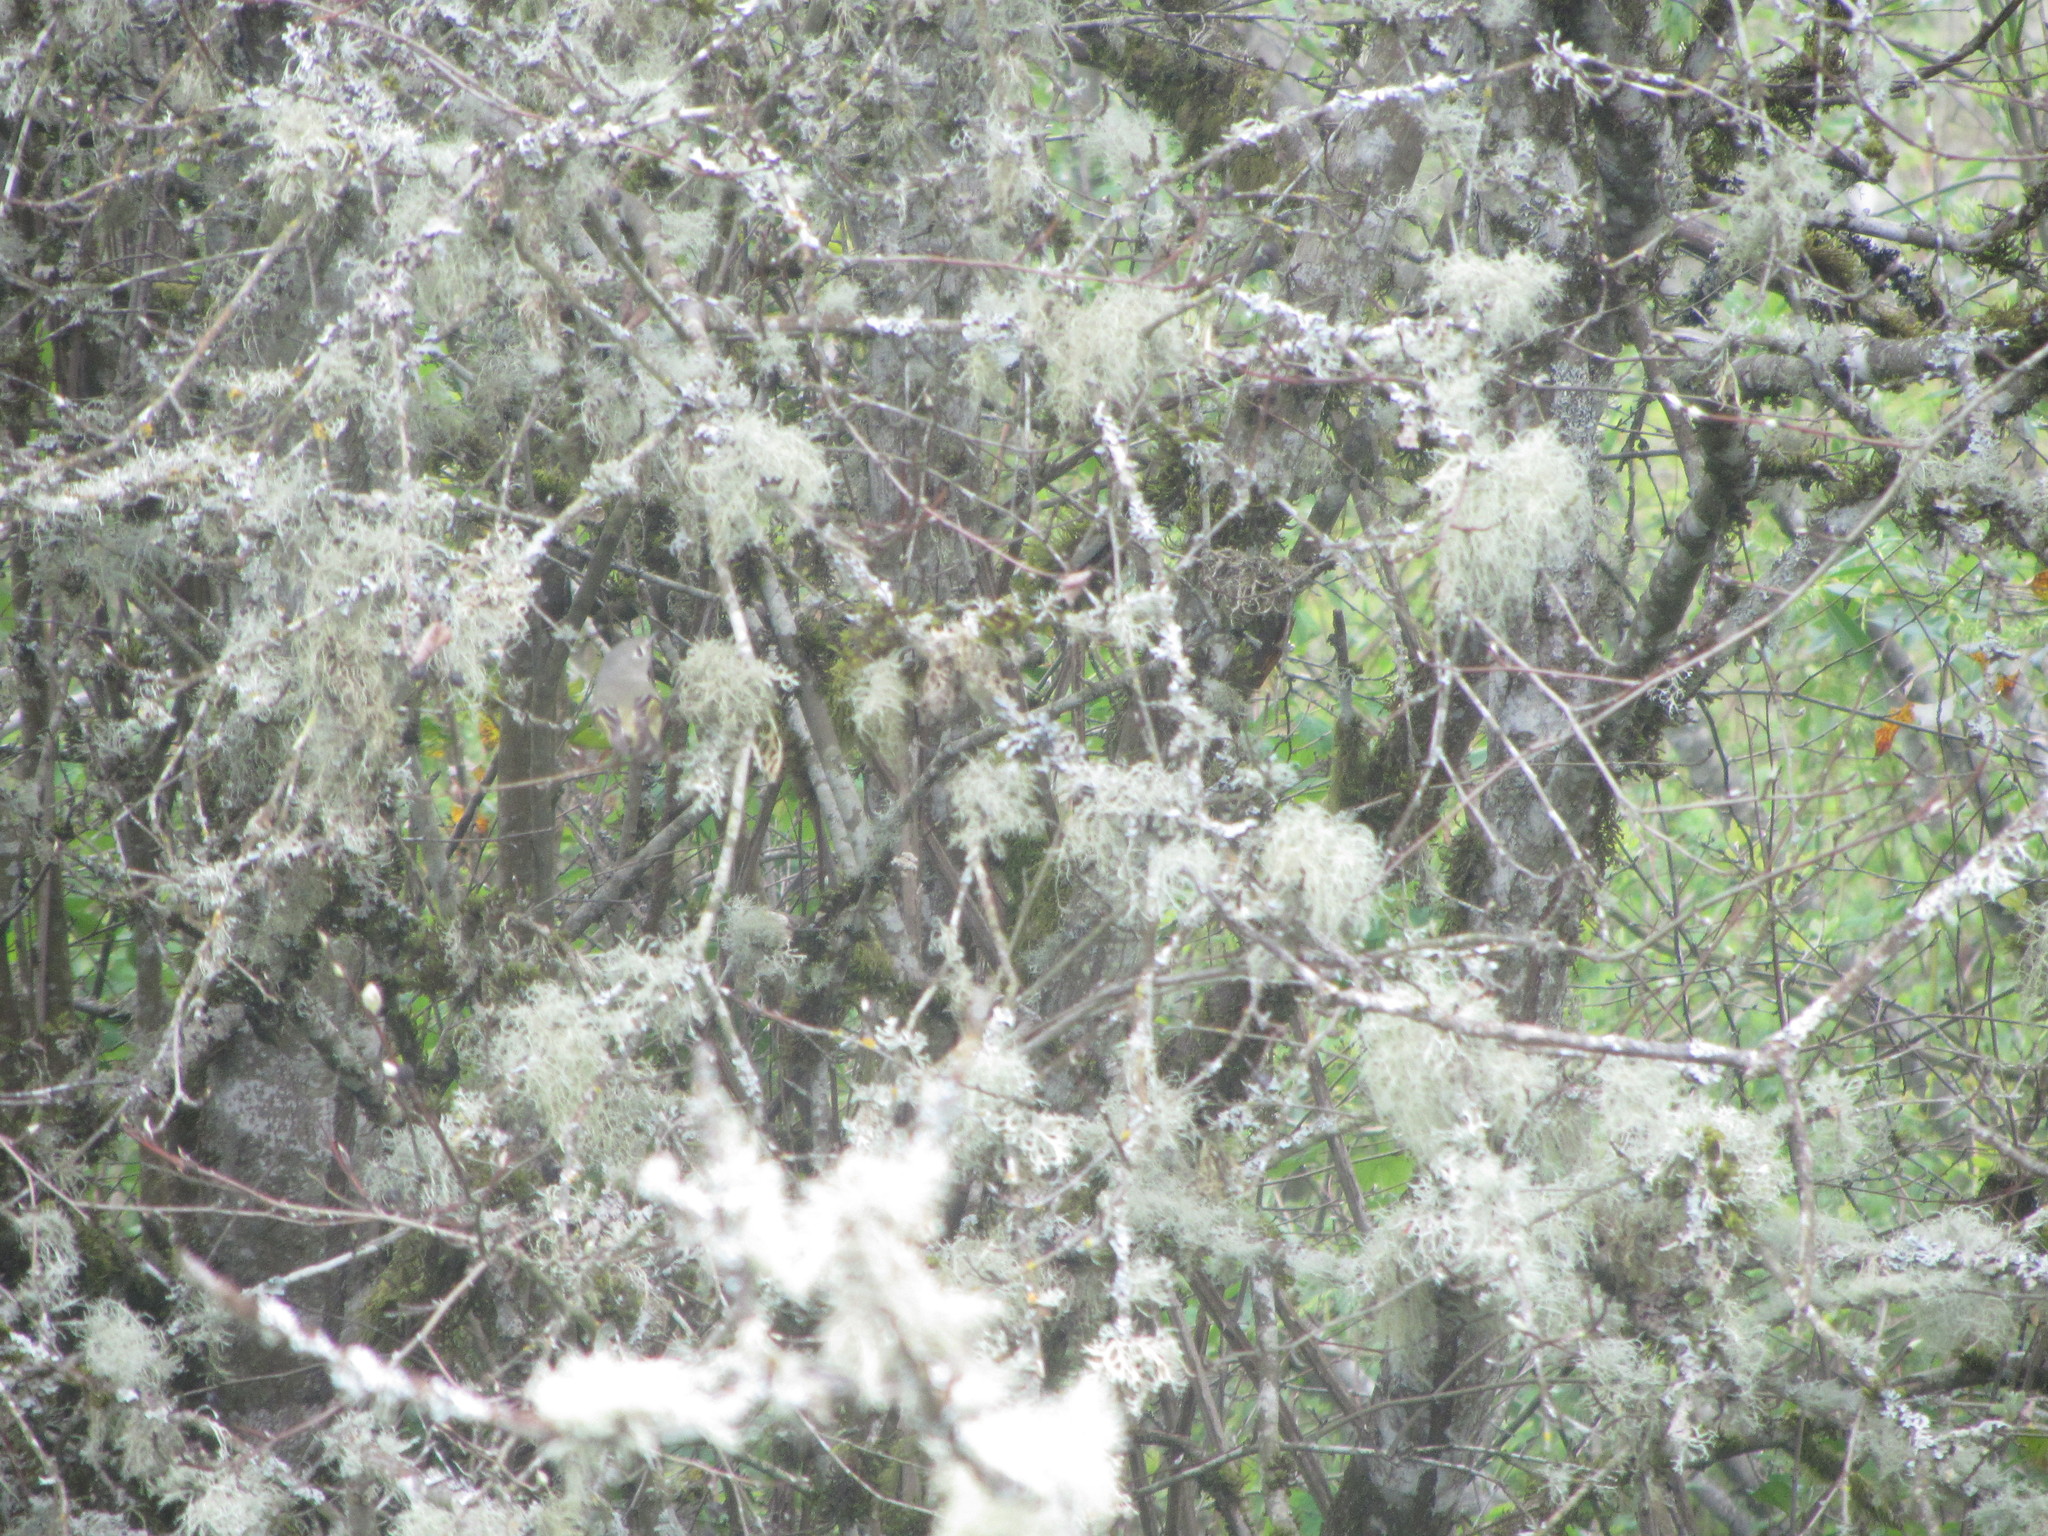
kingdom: Animalia
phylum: Chordata
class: Aves
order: Passeriformes
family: Regulidae
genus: Regulus
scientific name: Regulus calendula
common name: Ruby-crowned kinglet
